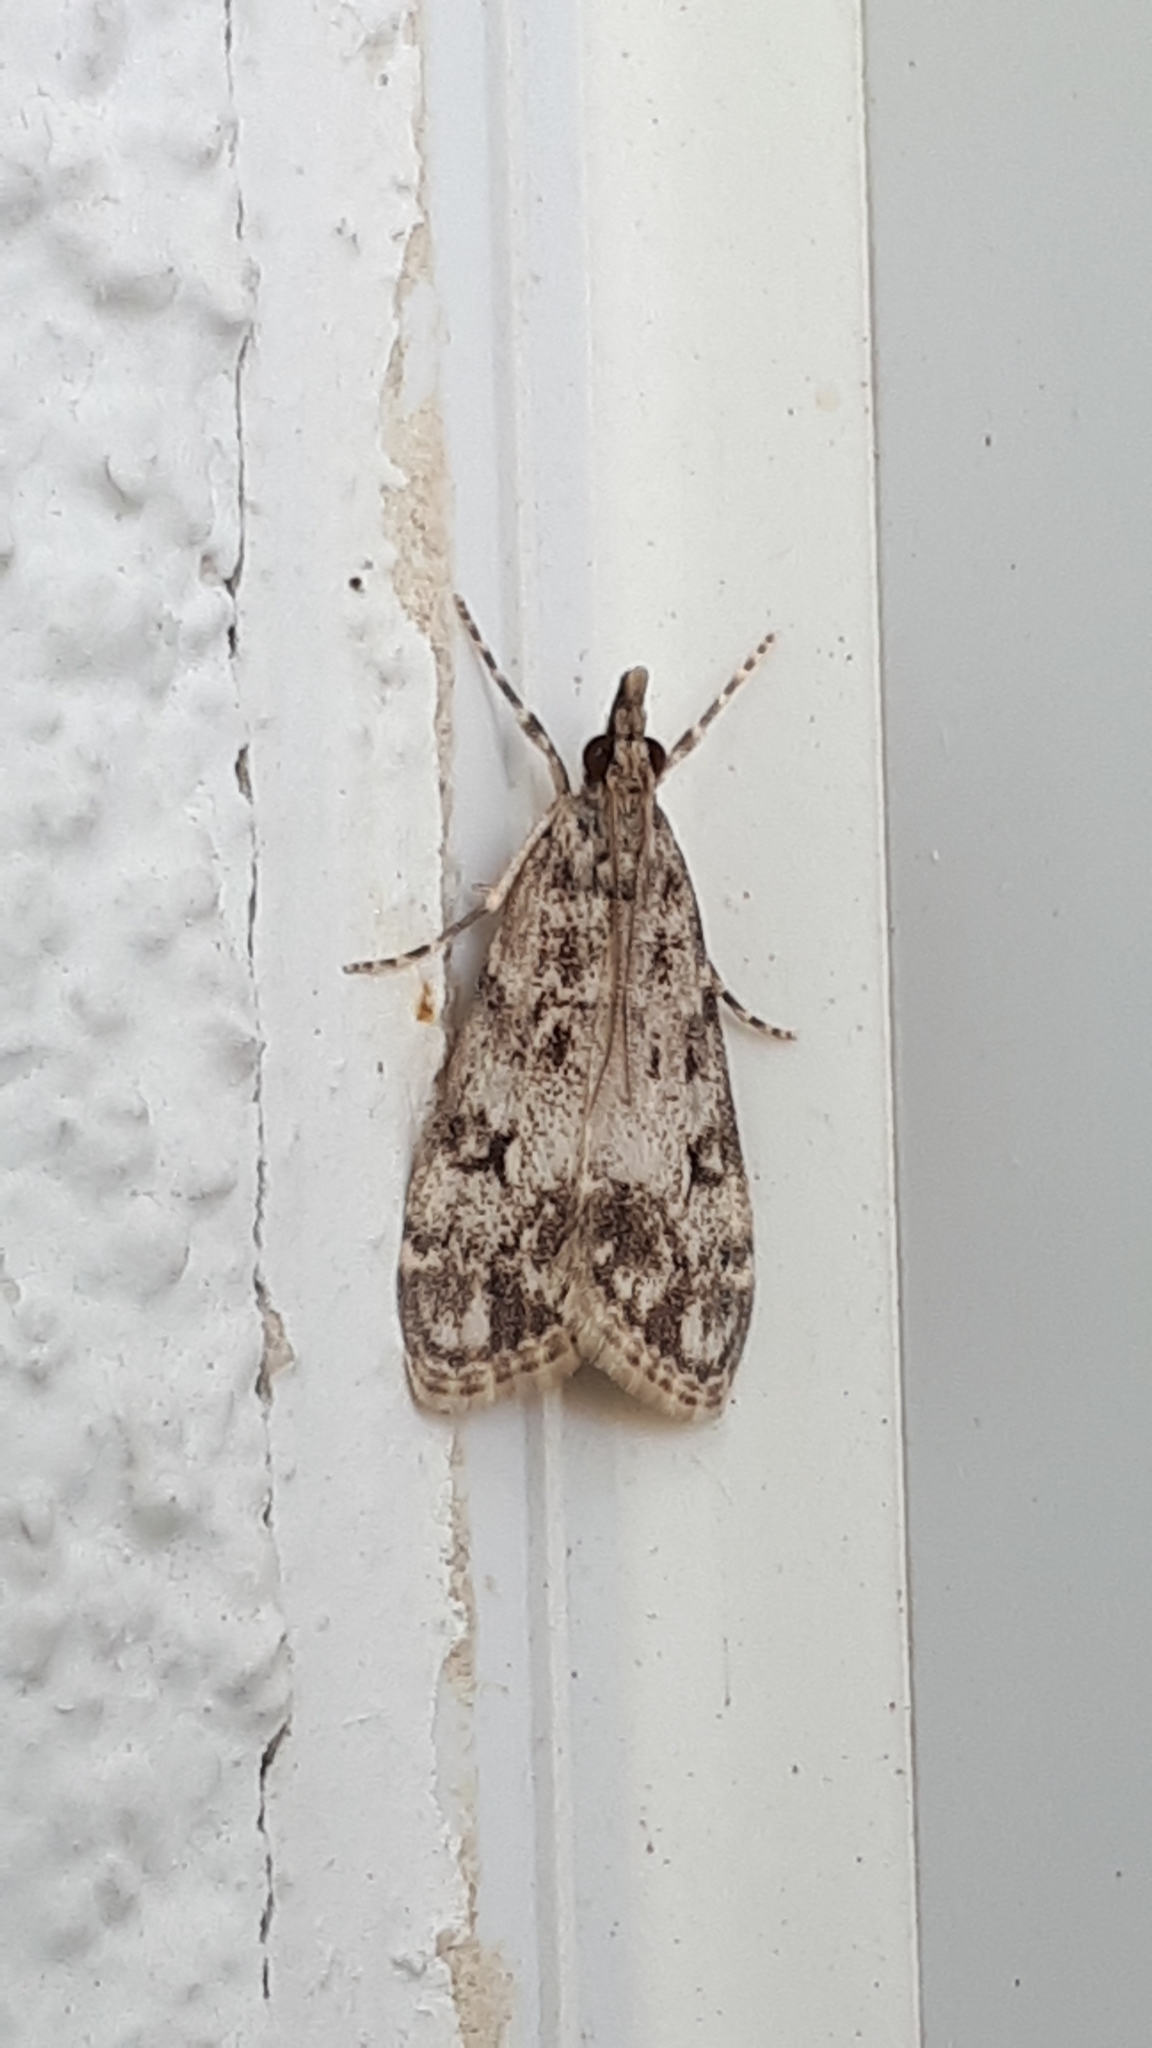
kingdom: Animalia
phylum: Arthropoda
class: Insecta
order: Lepidoptera
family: Crambidae
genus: Eudonia
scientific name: Eudonia lacustrata
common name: Little grey
